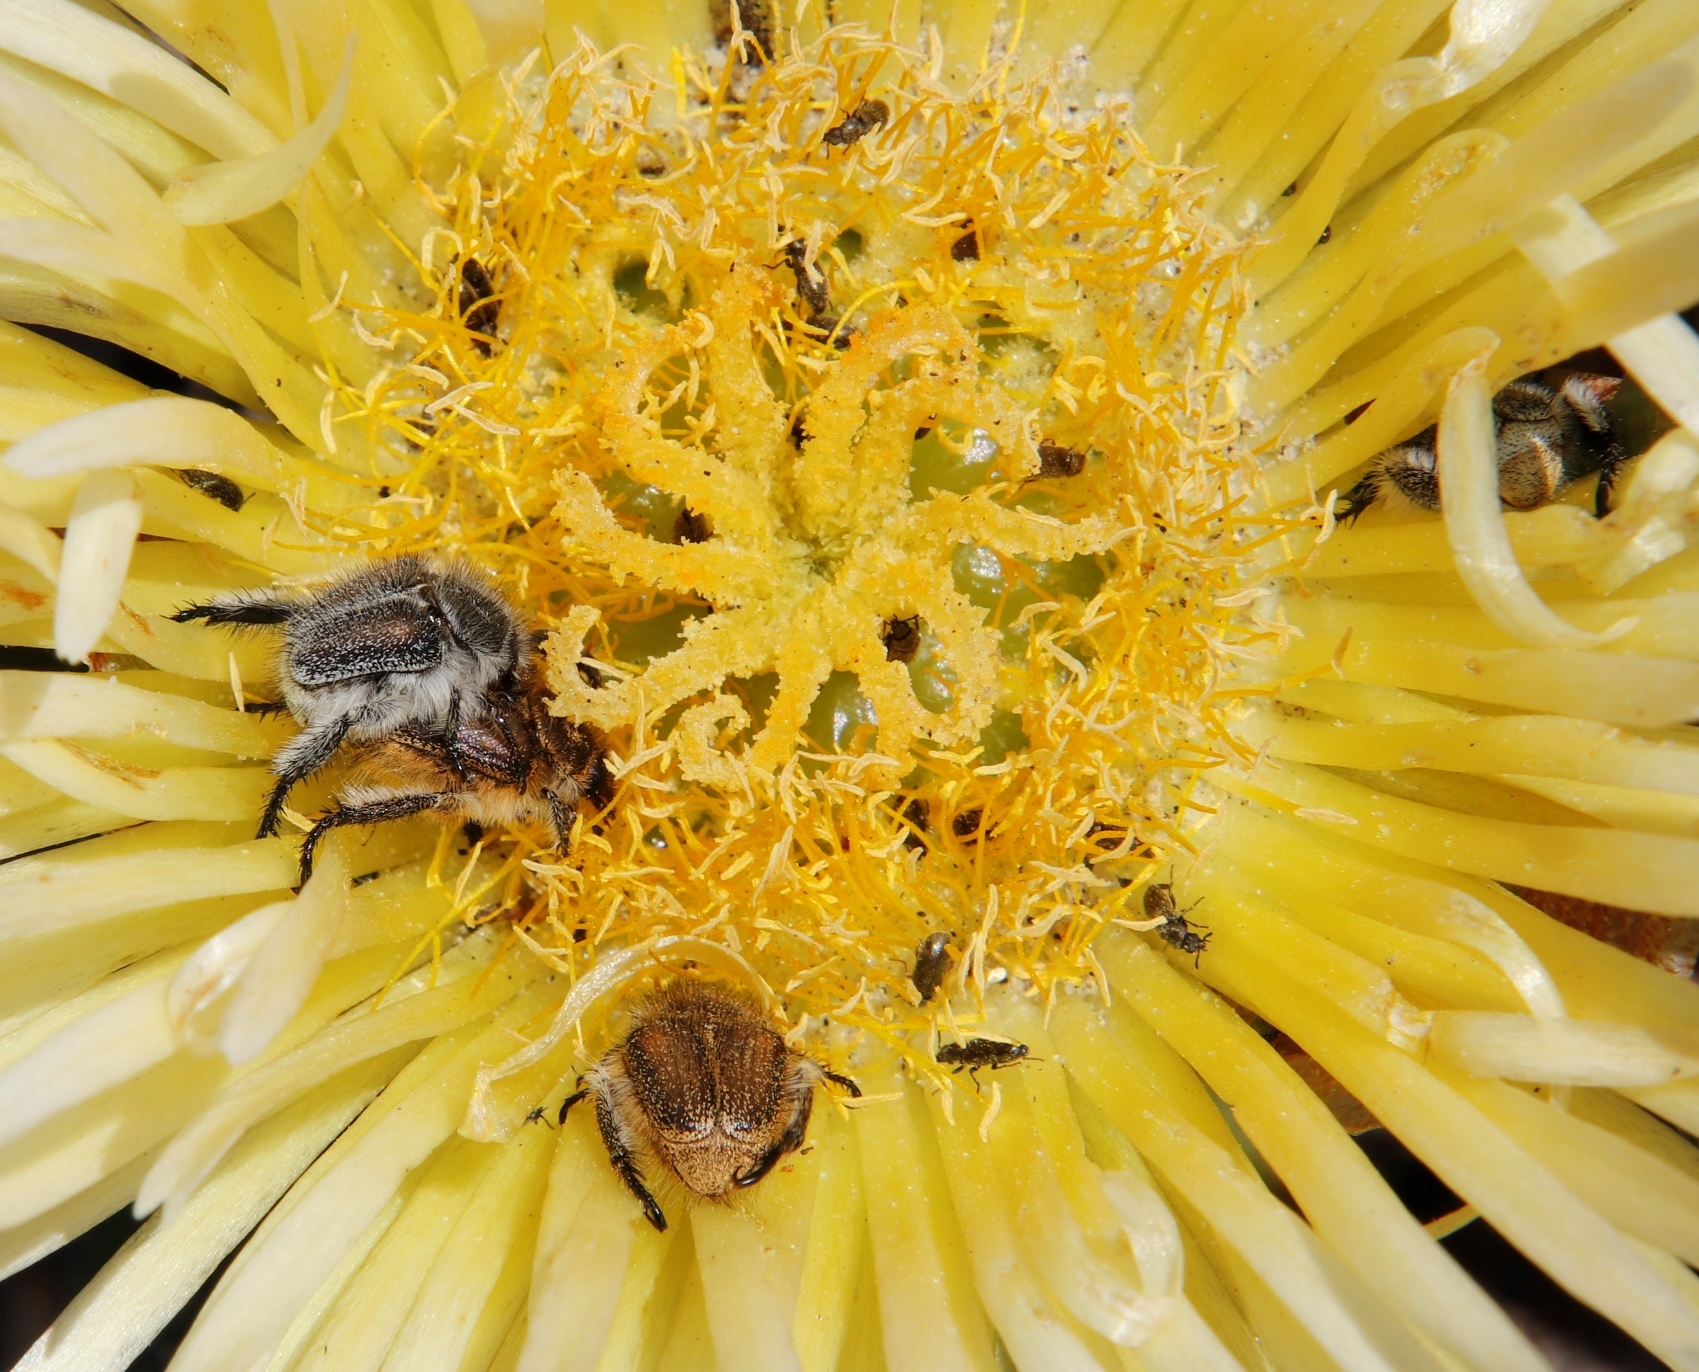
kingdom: Plantae
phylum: Tracheophyta
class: Magnoliopsida
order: Caryophyllales
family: Aizoaceae
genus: Carpobrotus
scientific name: Carpobrotus edulis
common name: Hottentot-fig
